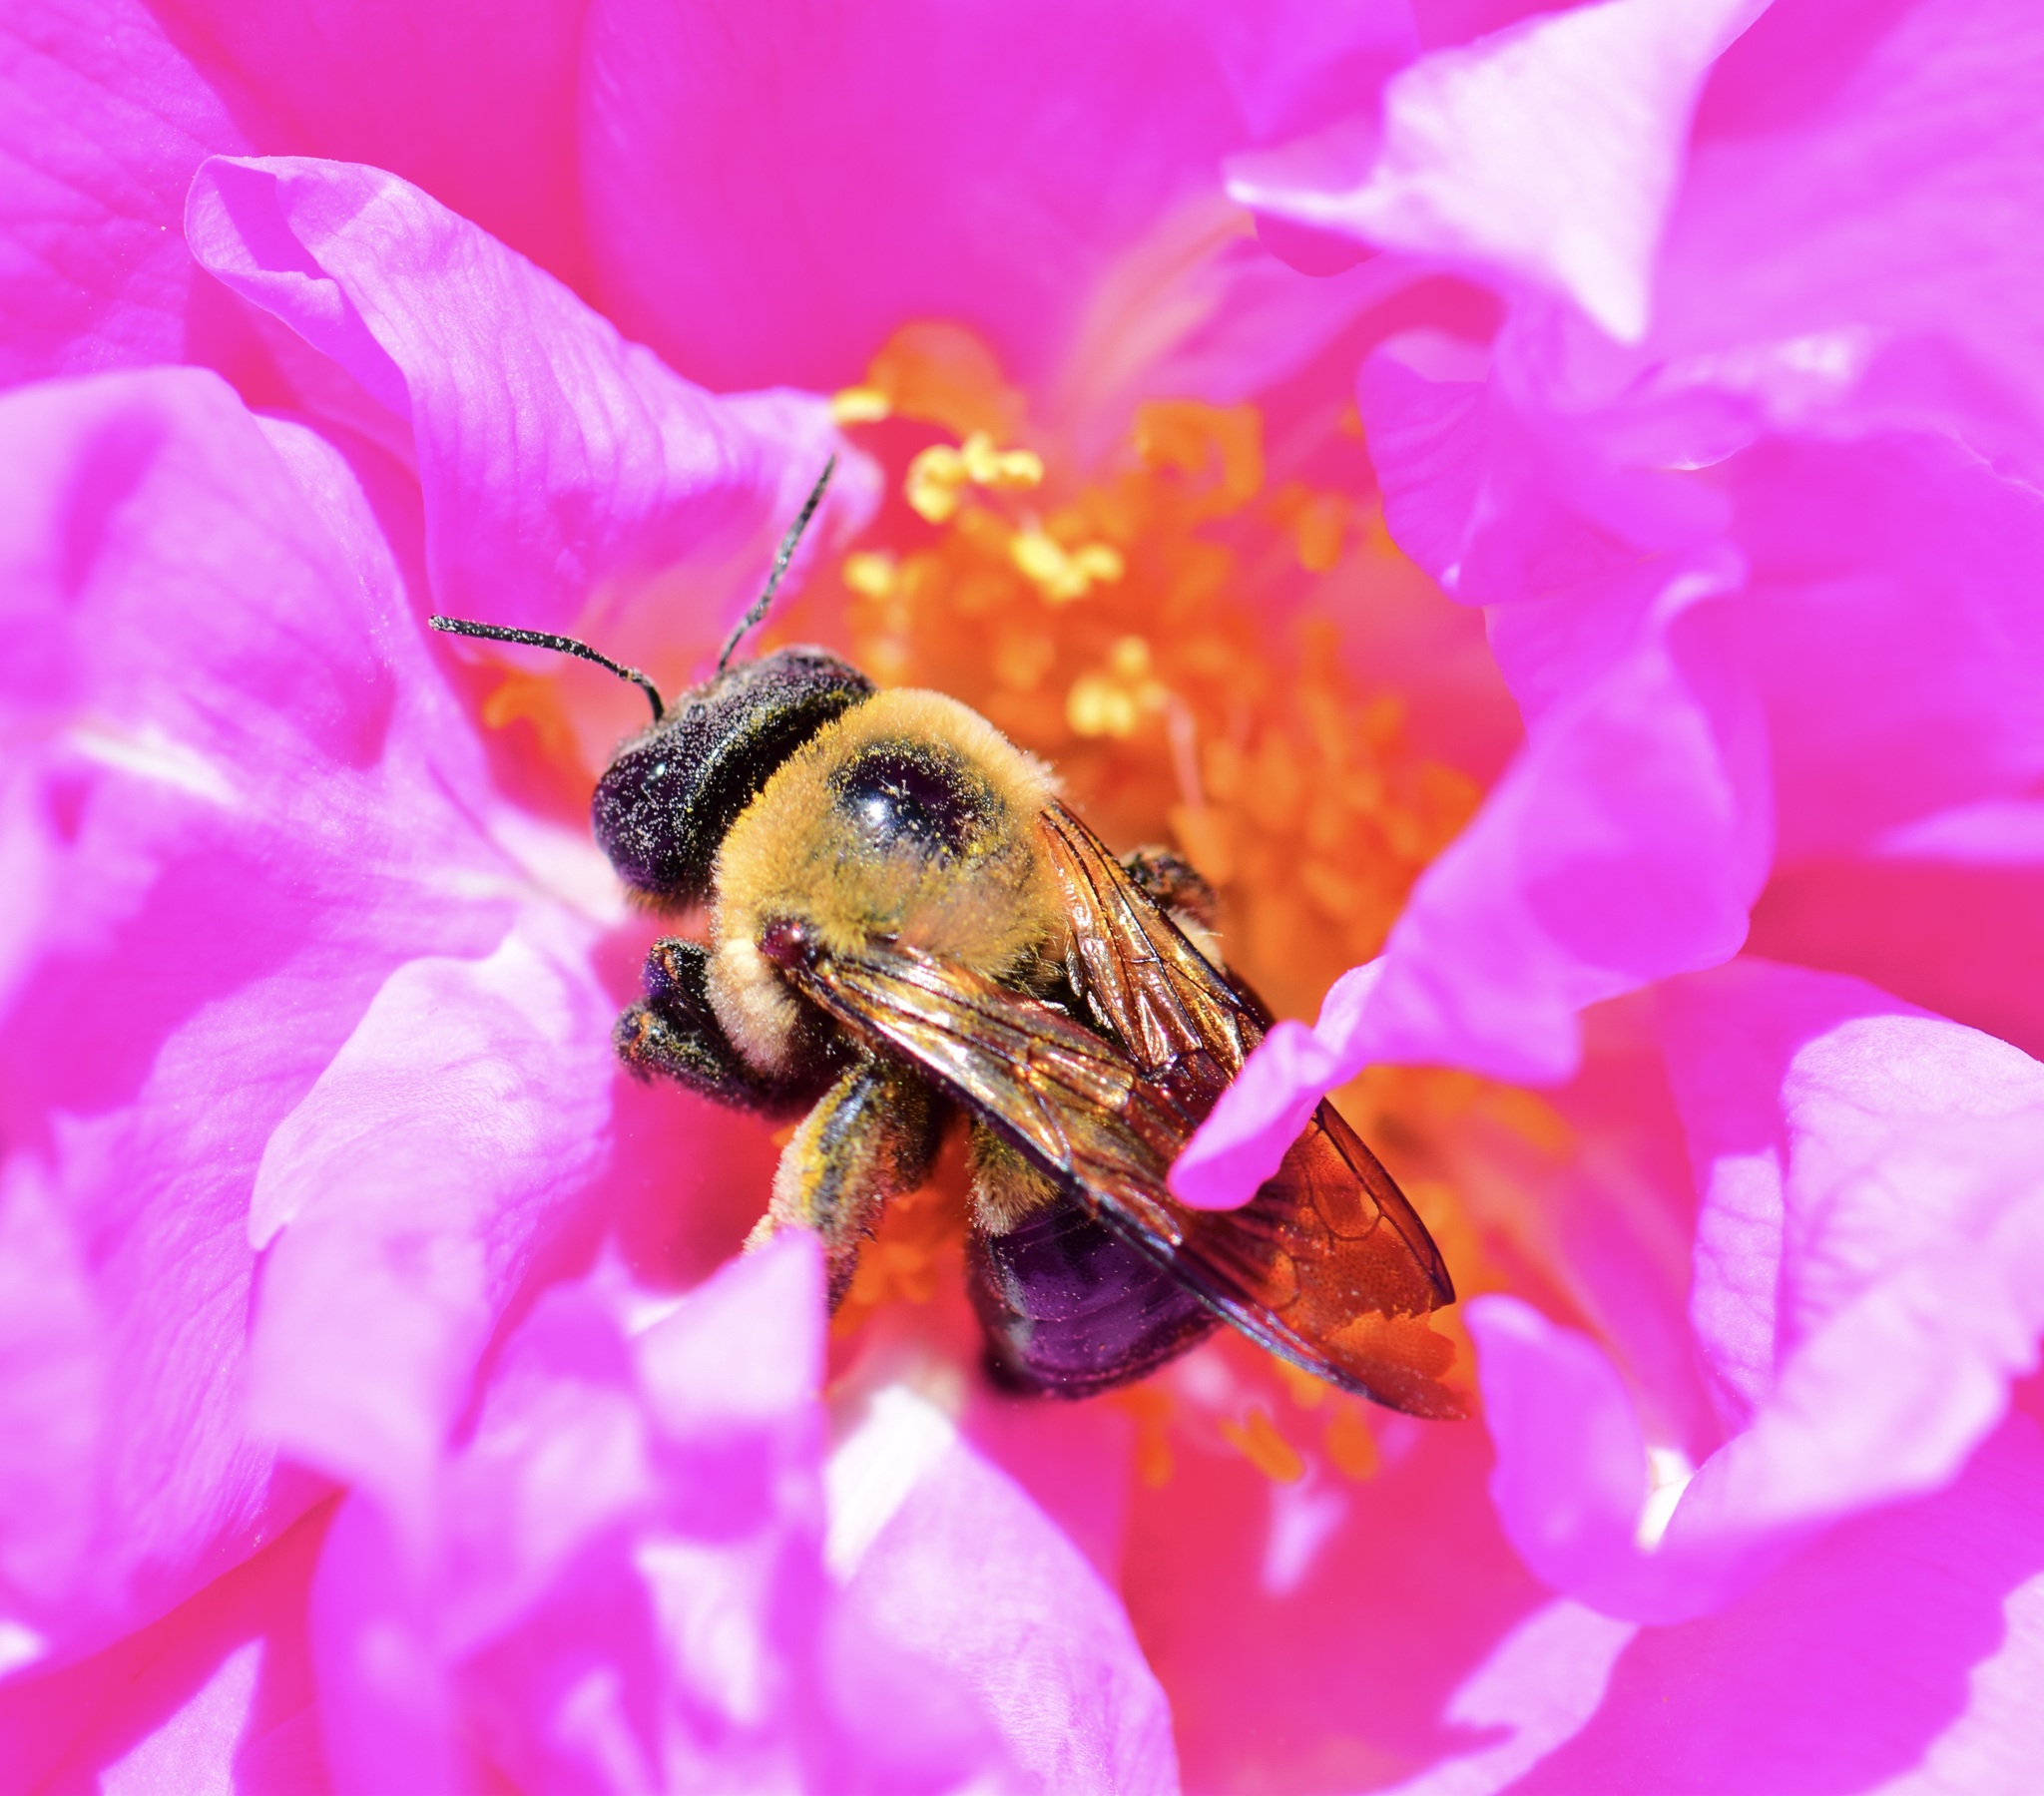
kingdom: Animalia
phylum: Arthropoda
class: Insecta
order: Hymenoptera
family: Apidae
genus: Xylocopa
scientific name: Xylocopa virginica
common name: Carpenter bee
